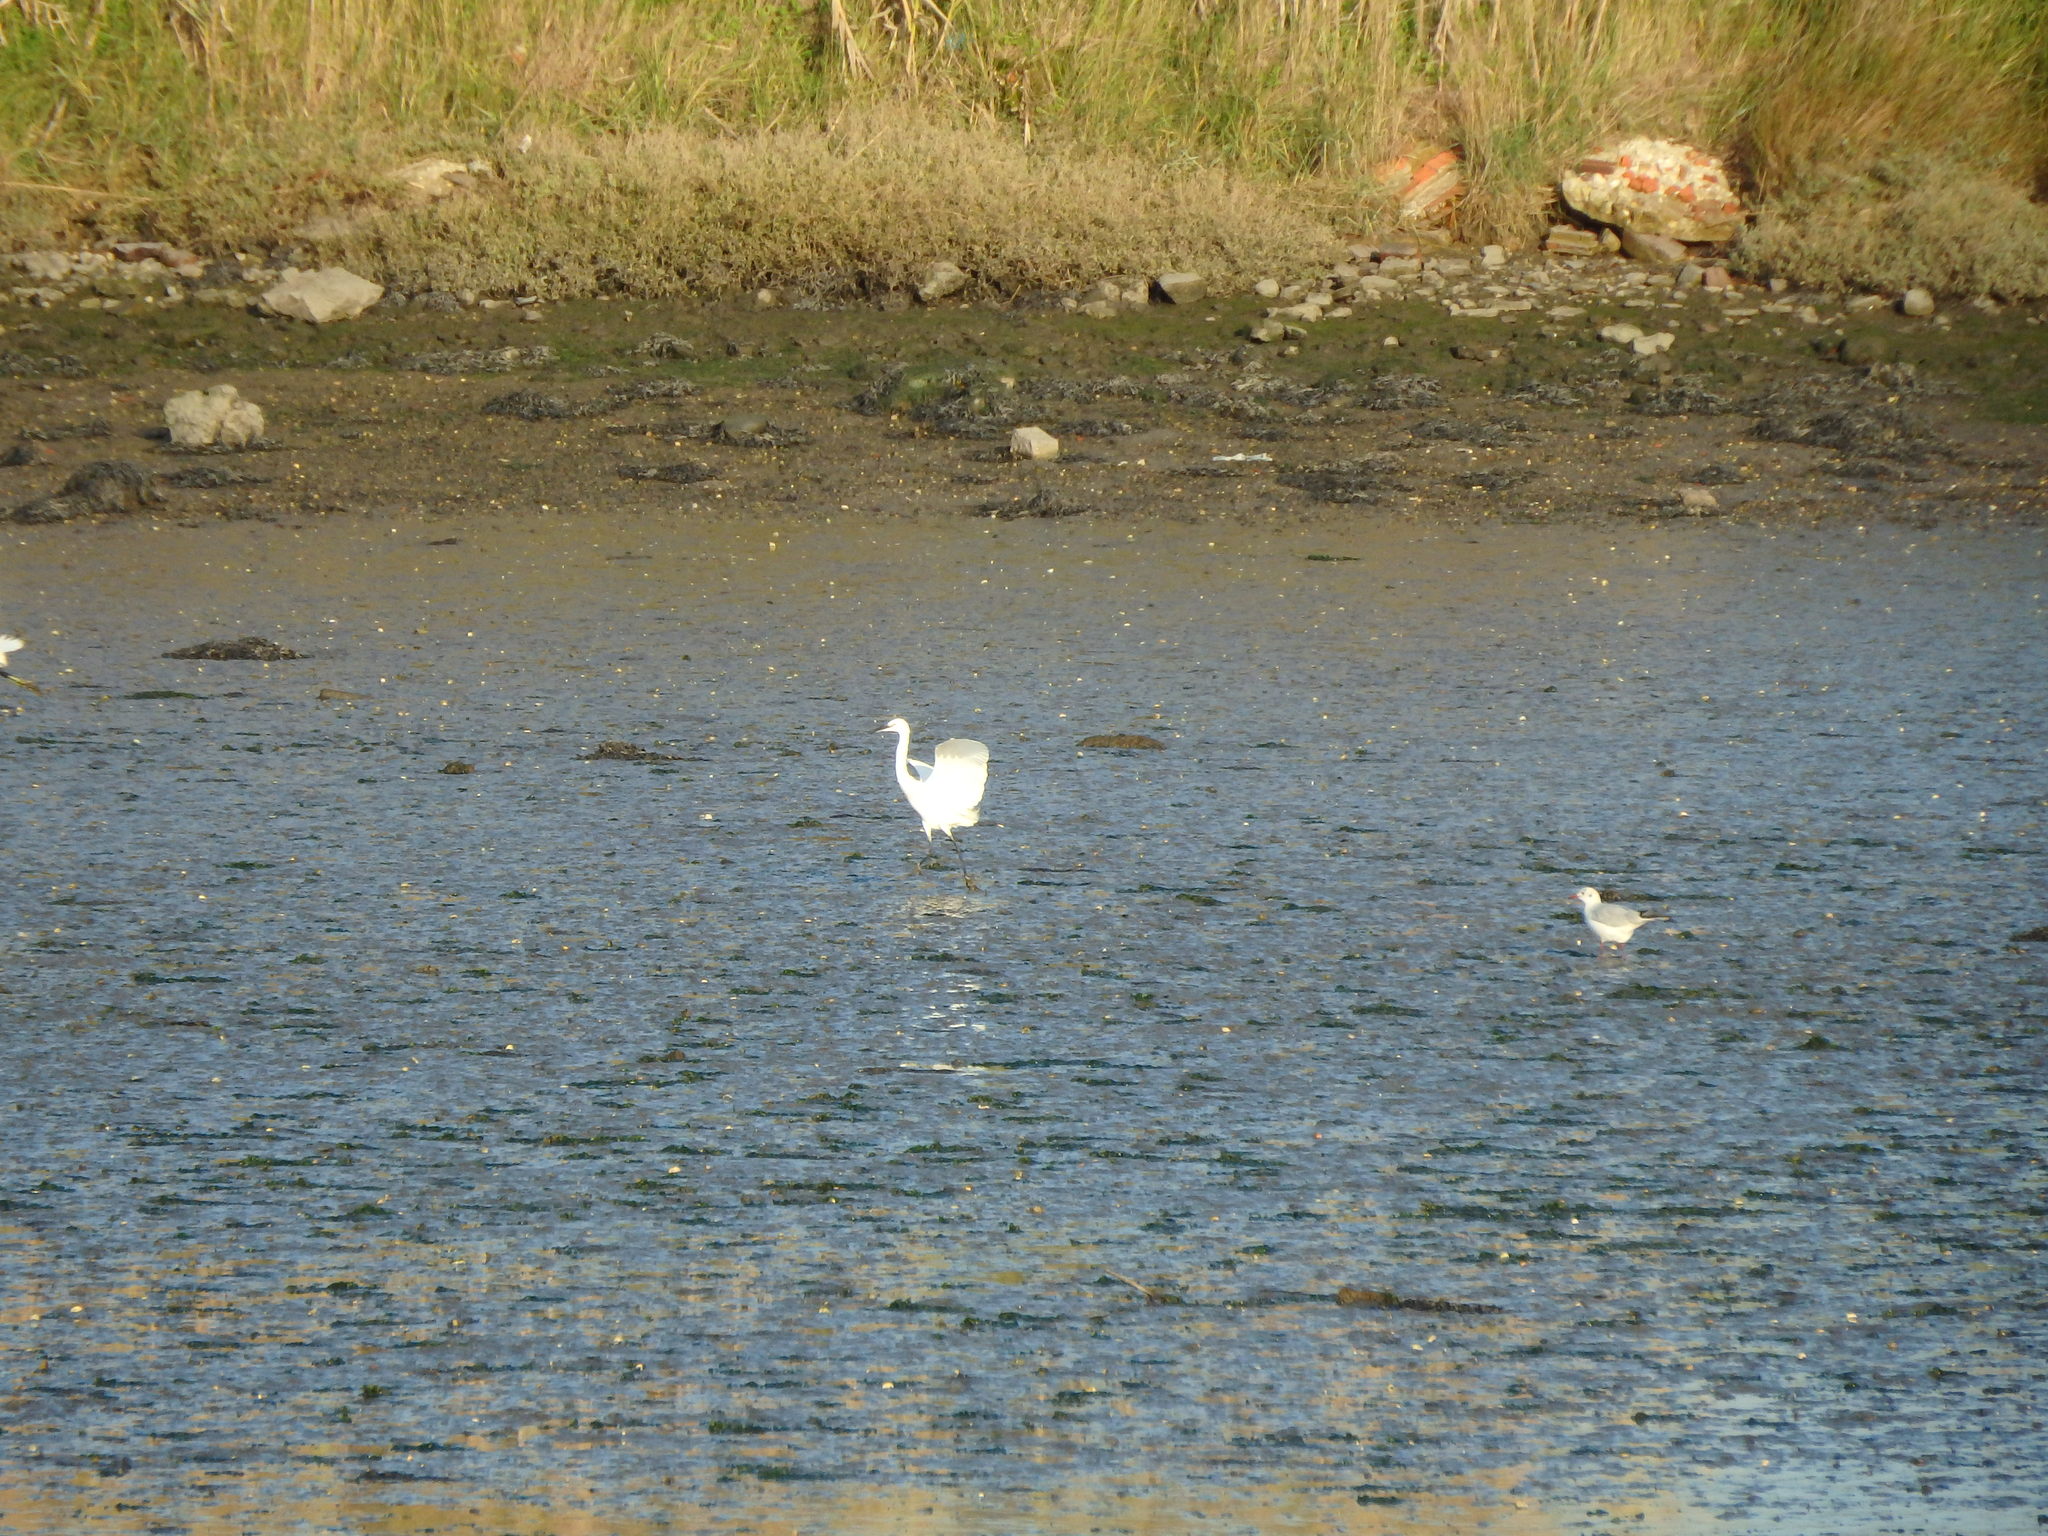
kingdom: Animalia
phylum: Chordata
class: Aves
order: Pelecaniformes
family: Ardeidae
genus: Egretta
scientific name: Egretta garzetta
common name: Little egret
